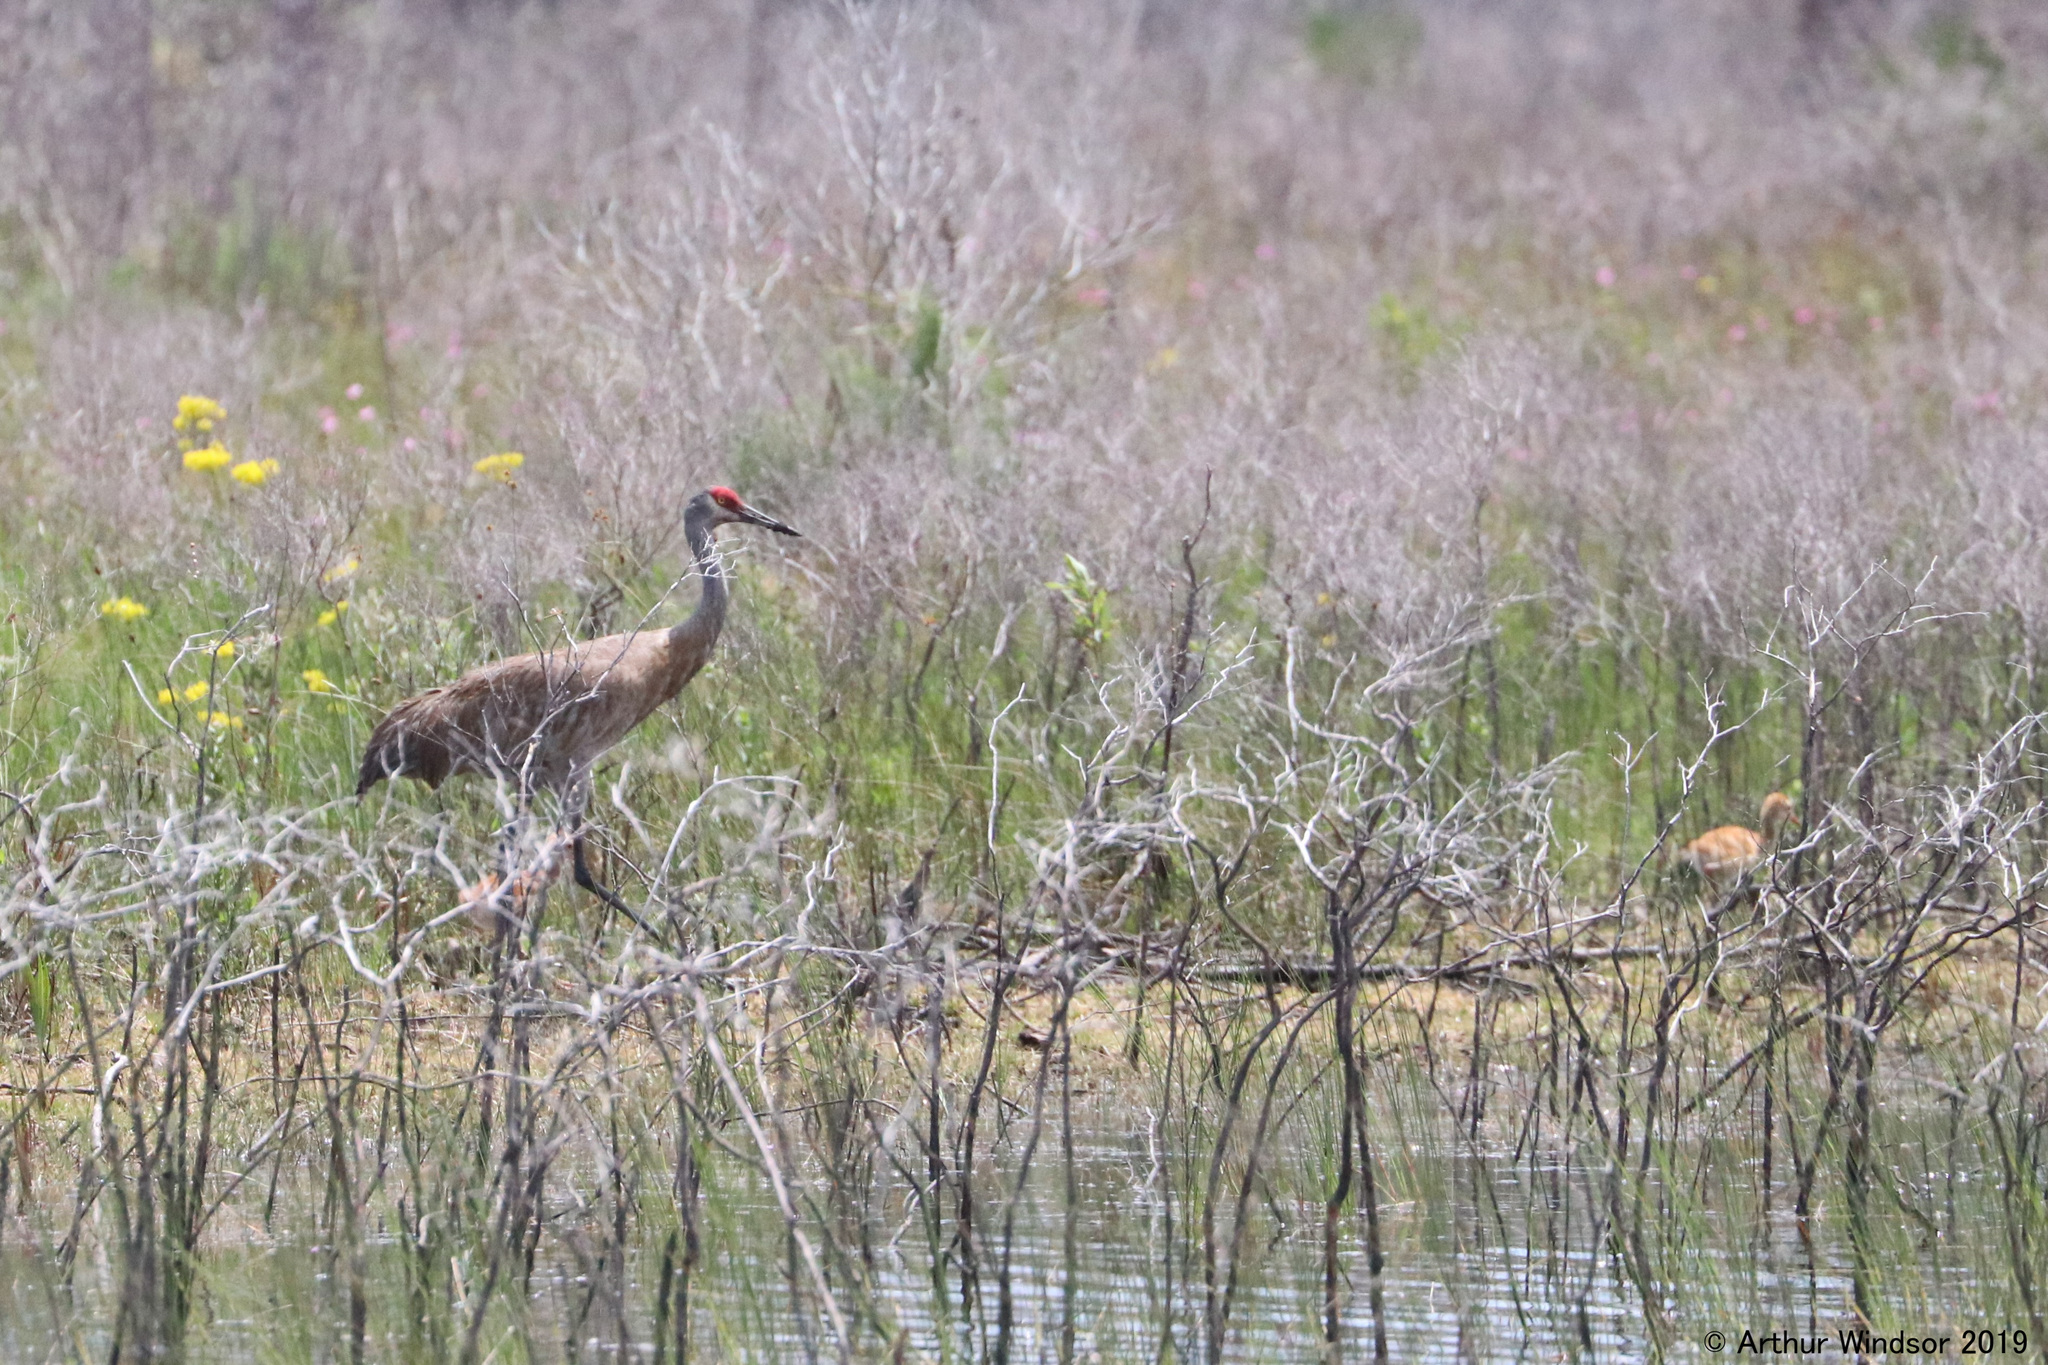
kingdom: Animalia
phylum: Chordata
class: Aves
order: Gruiformes
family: Gruidae
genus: Grus
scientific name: Grus canadensis
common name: Sandhill crane
